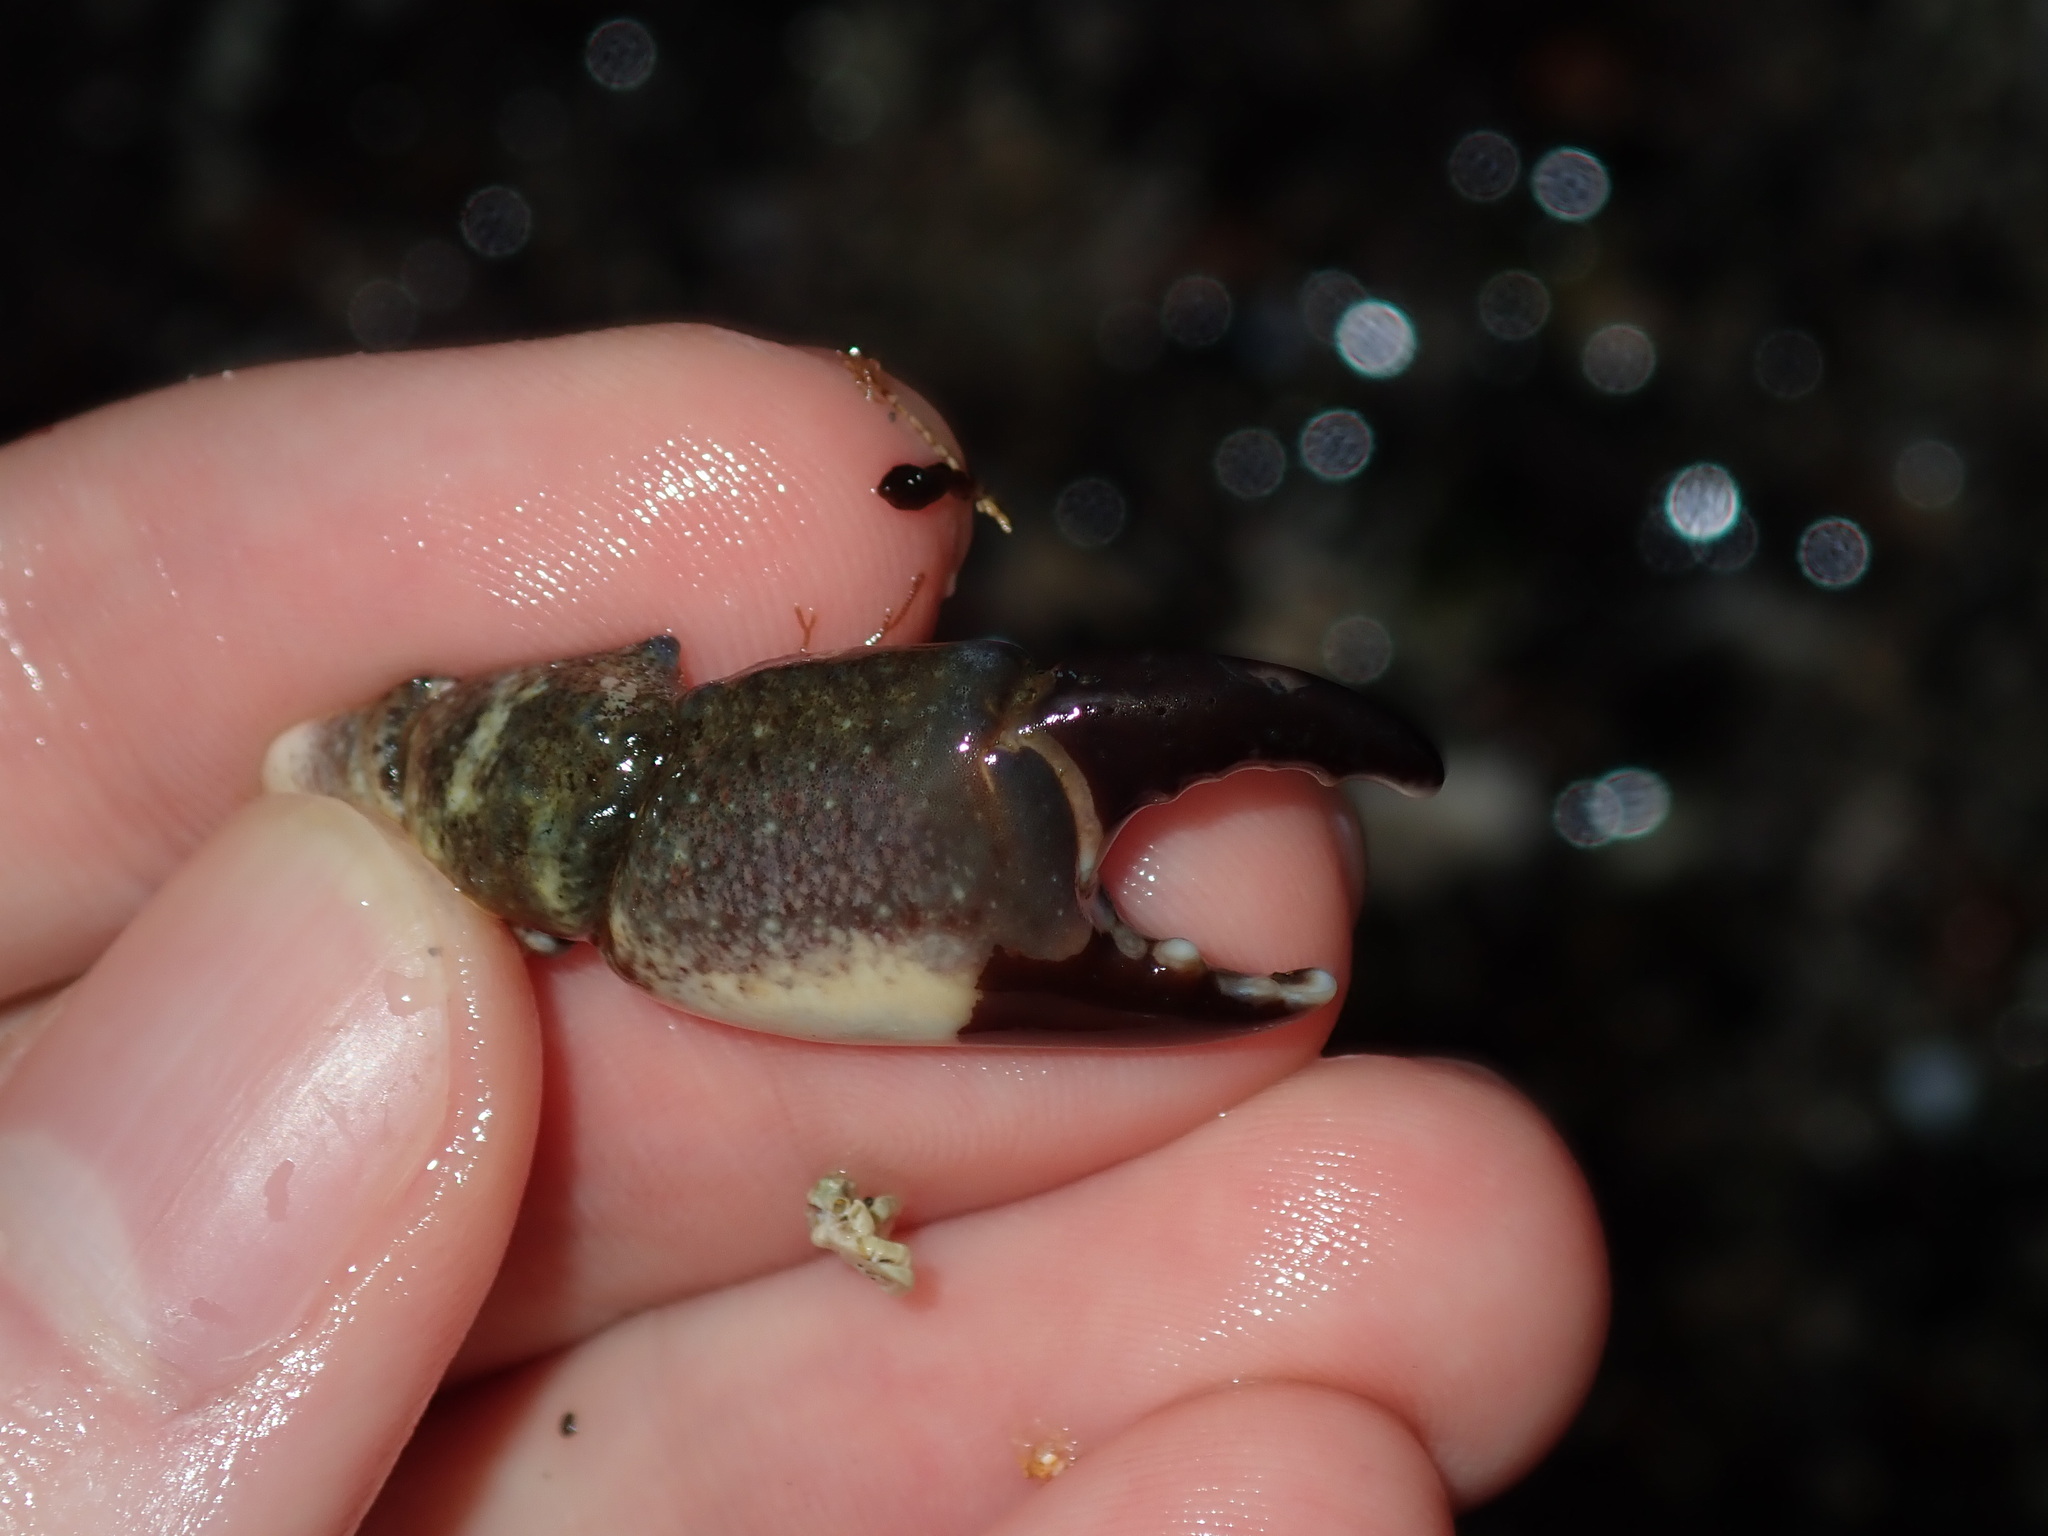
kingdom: Animalia
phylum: Arthropoda
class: Malacostraca
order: Decapoda
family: Oziidae
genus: Ozius
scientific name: Ozius truncatus
